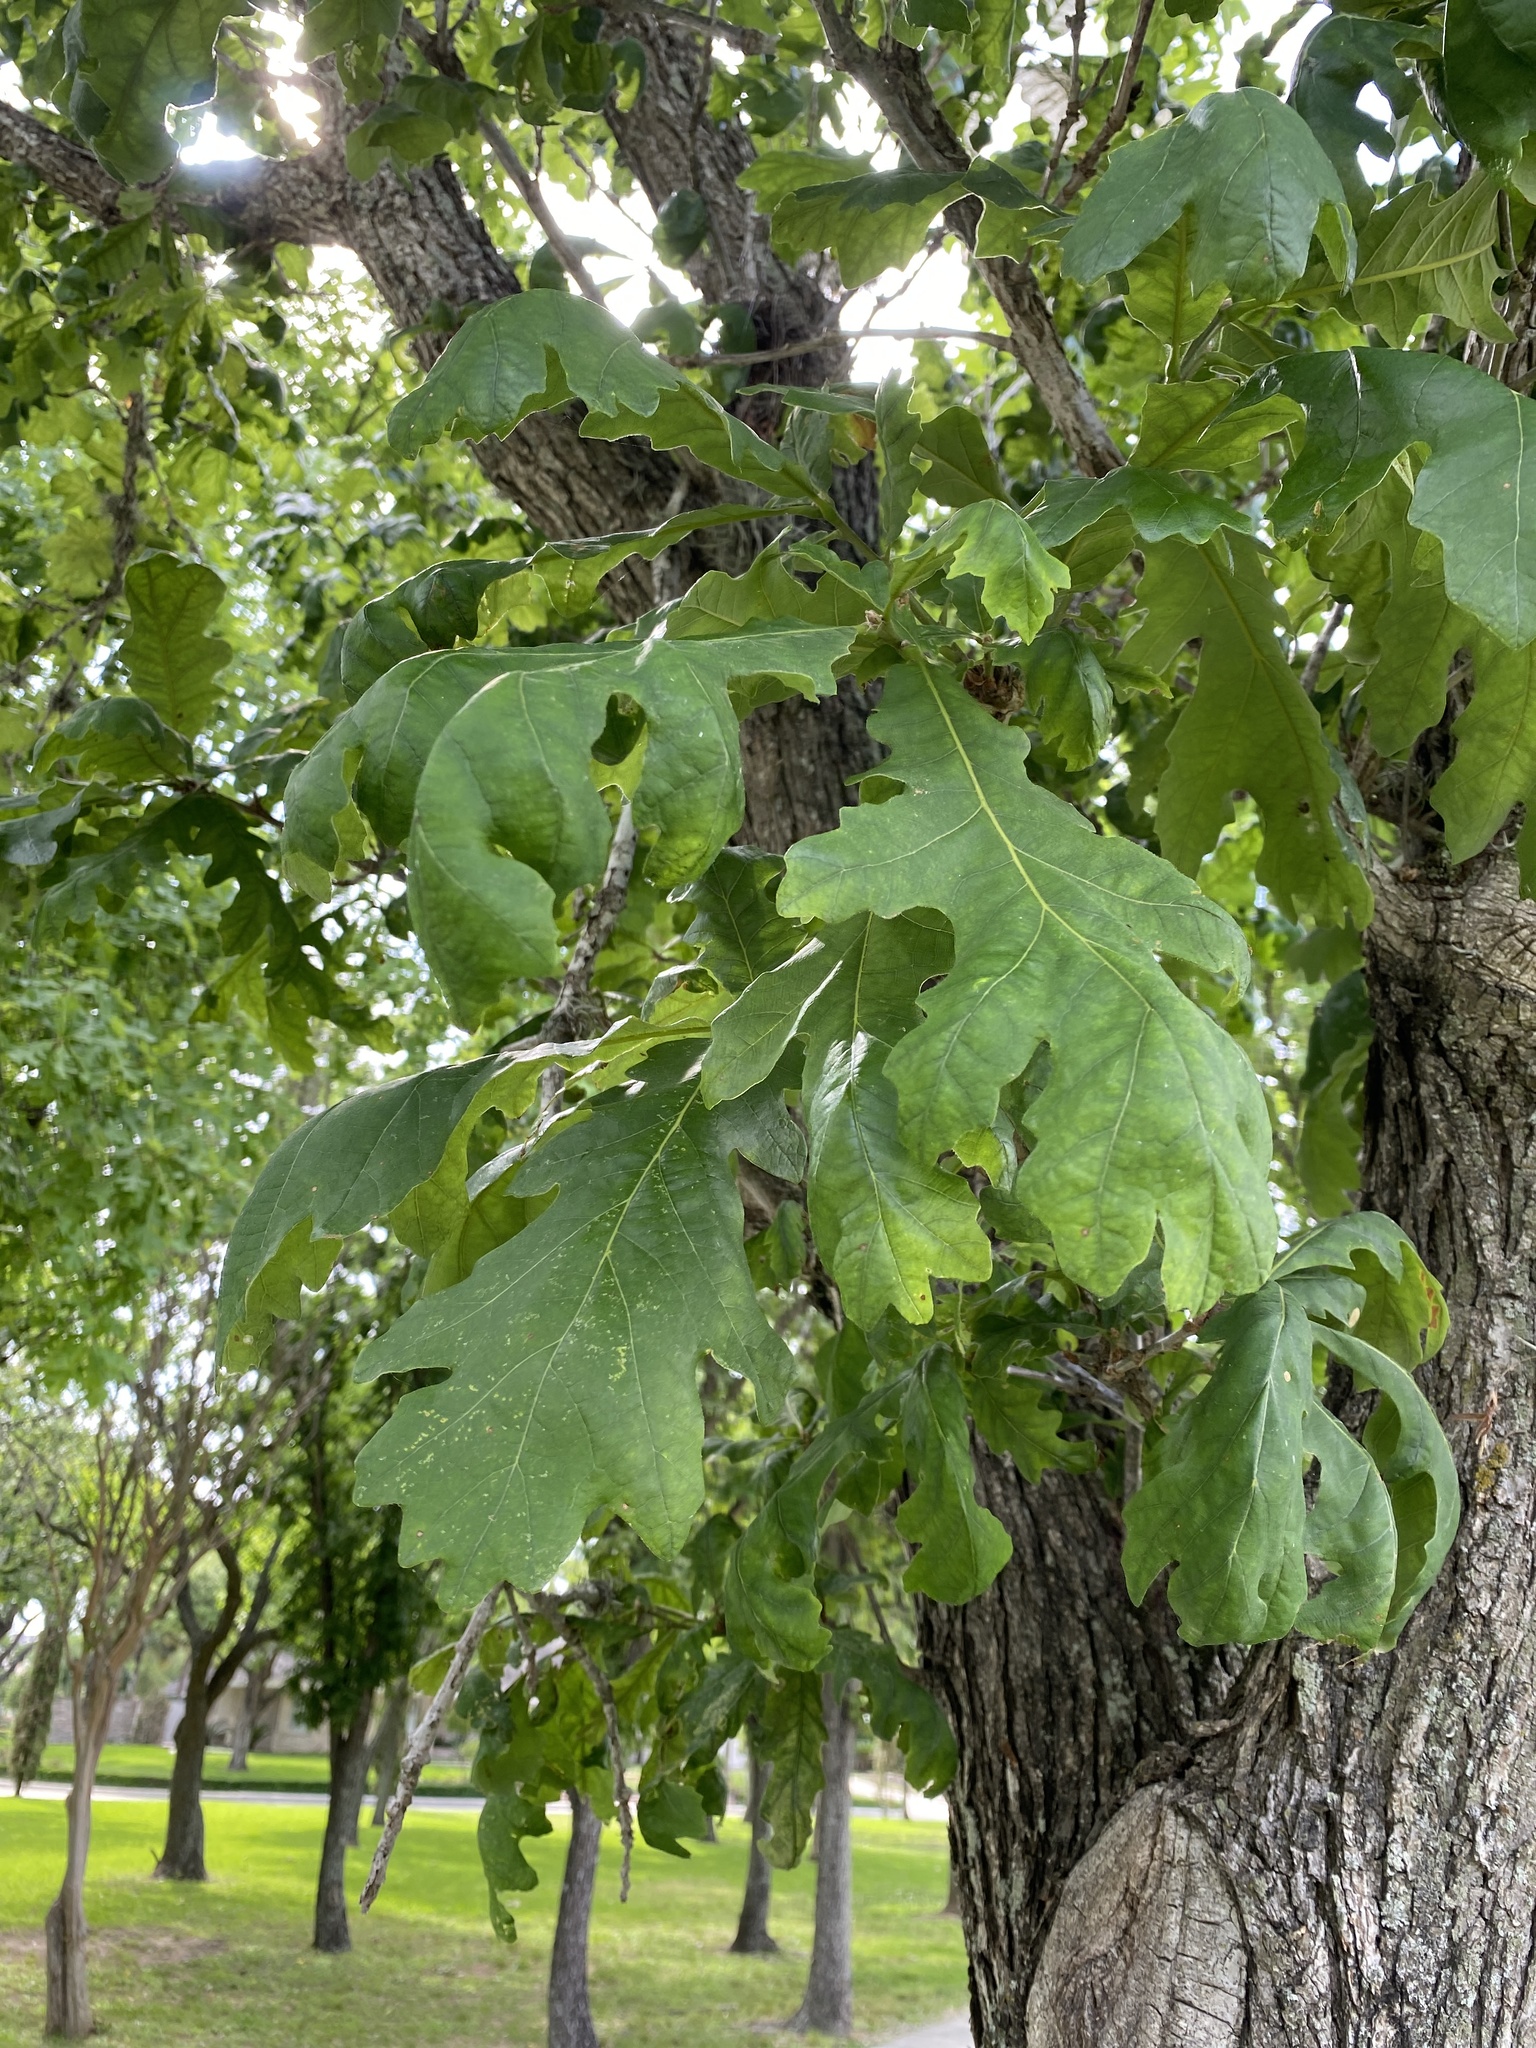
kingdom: Plantae
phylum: Tracheophyta
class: Magnoliopsida
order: Fagales
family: Fagaceae
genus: Quercus
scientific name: Quercus macrocarpa
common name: Bur oak
